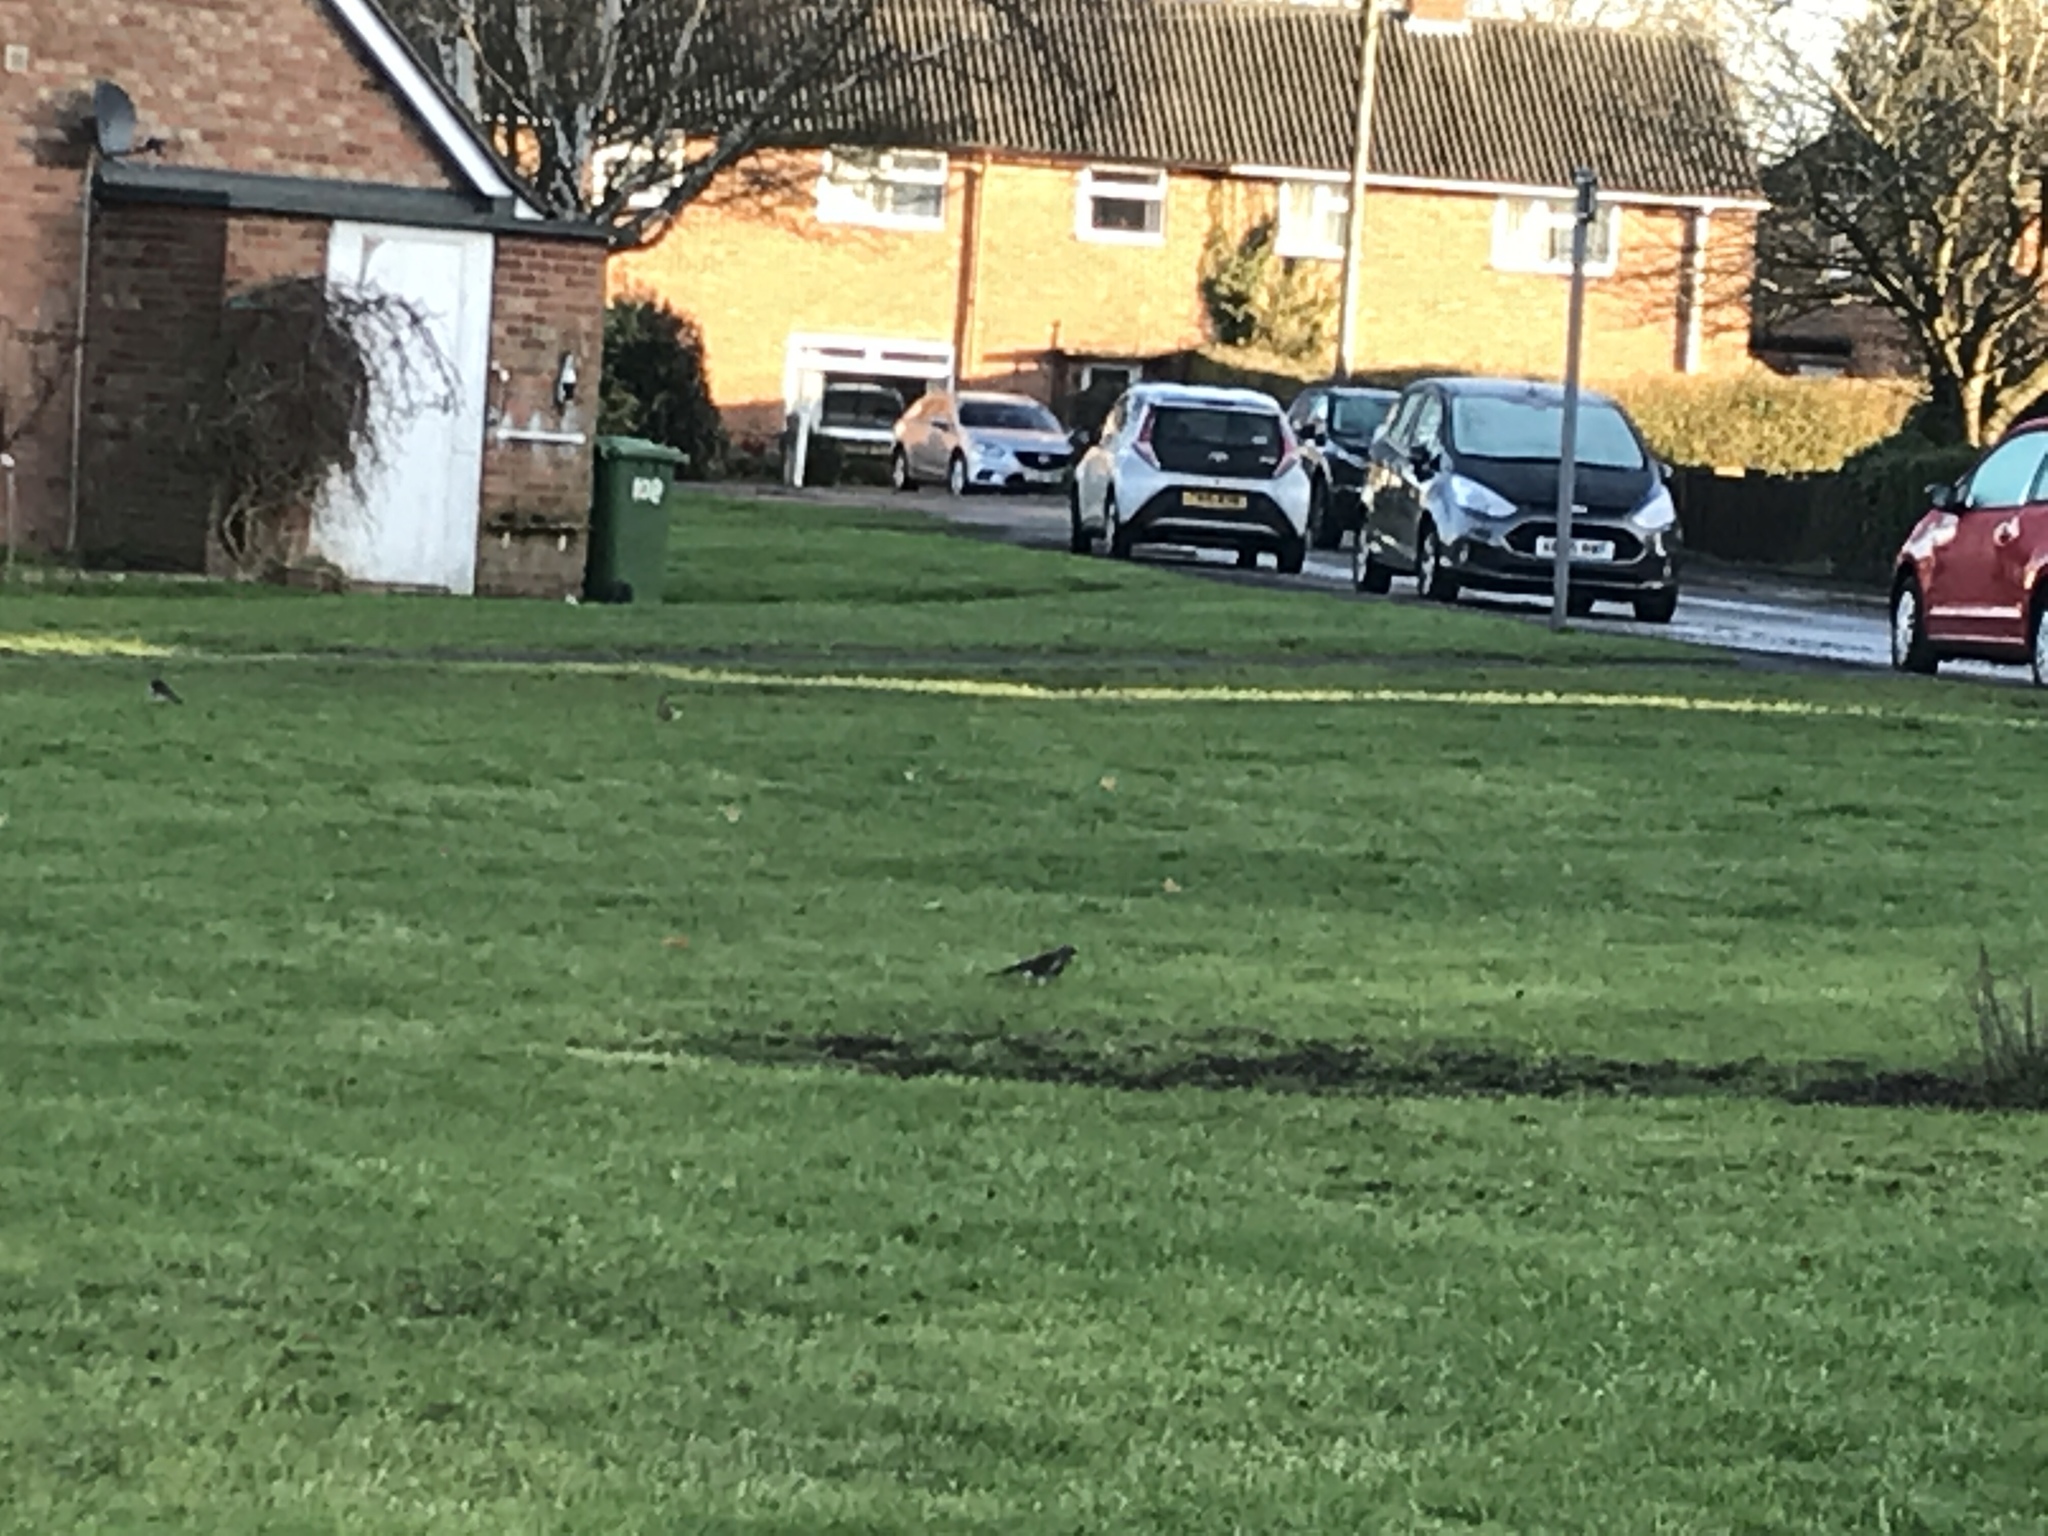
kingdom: Animalia
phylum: Chordata
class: Aves
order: Passeriformes
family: Turdidae
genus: Turdus
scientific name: Turdus pilaris
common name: Fieldfare
